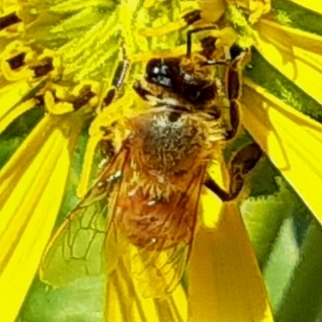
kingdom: Animalia
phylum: Arthropoda
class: Insecta
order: Hymenoptera
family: Apidae
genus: Apis
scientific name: Apis mellifera
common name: Honey bee
